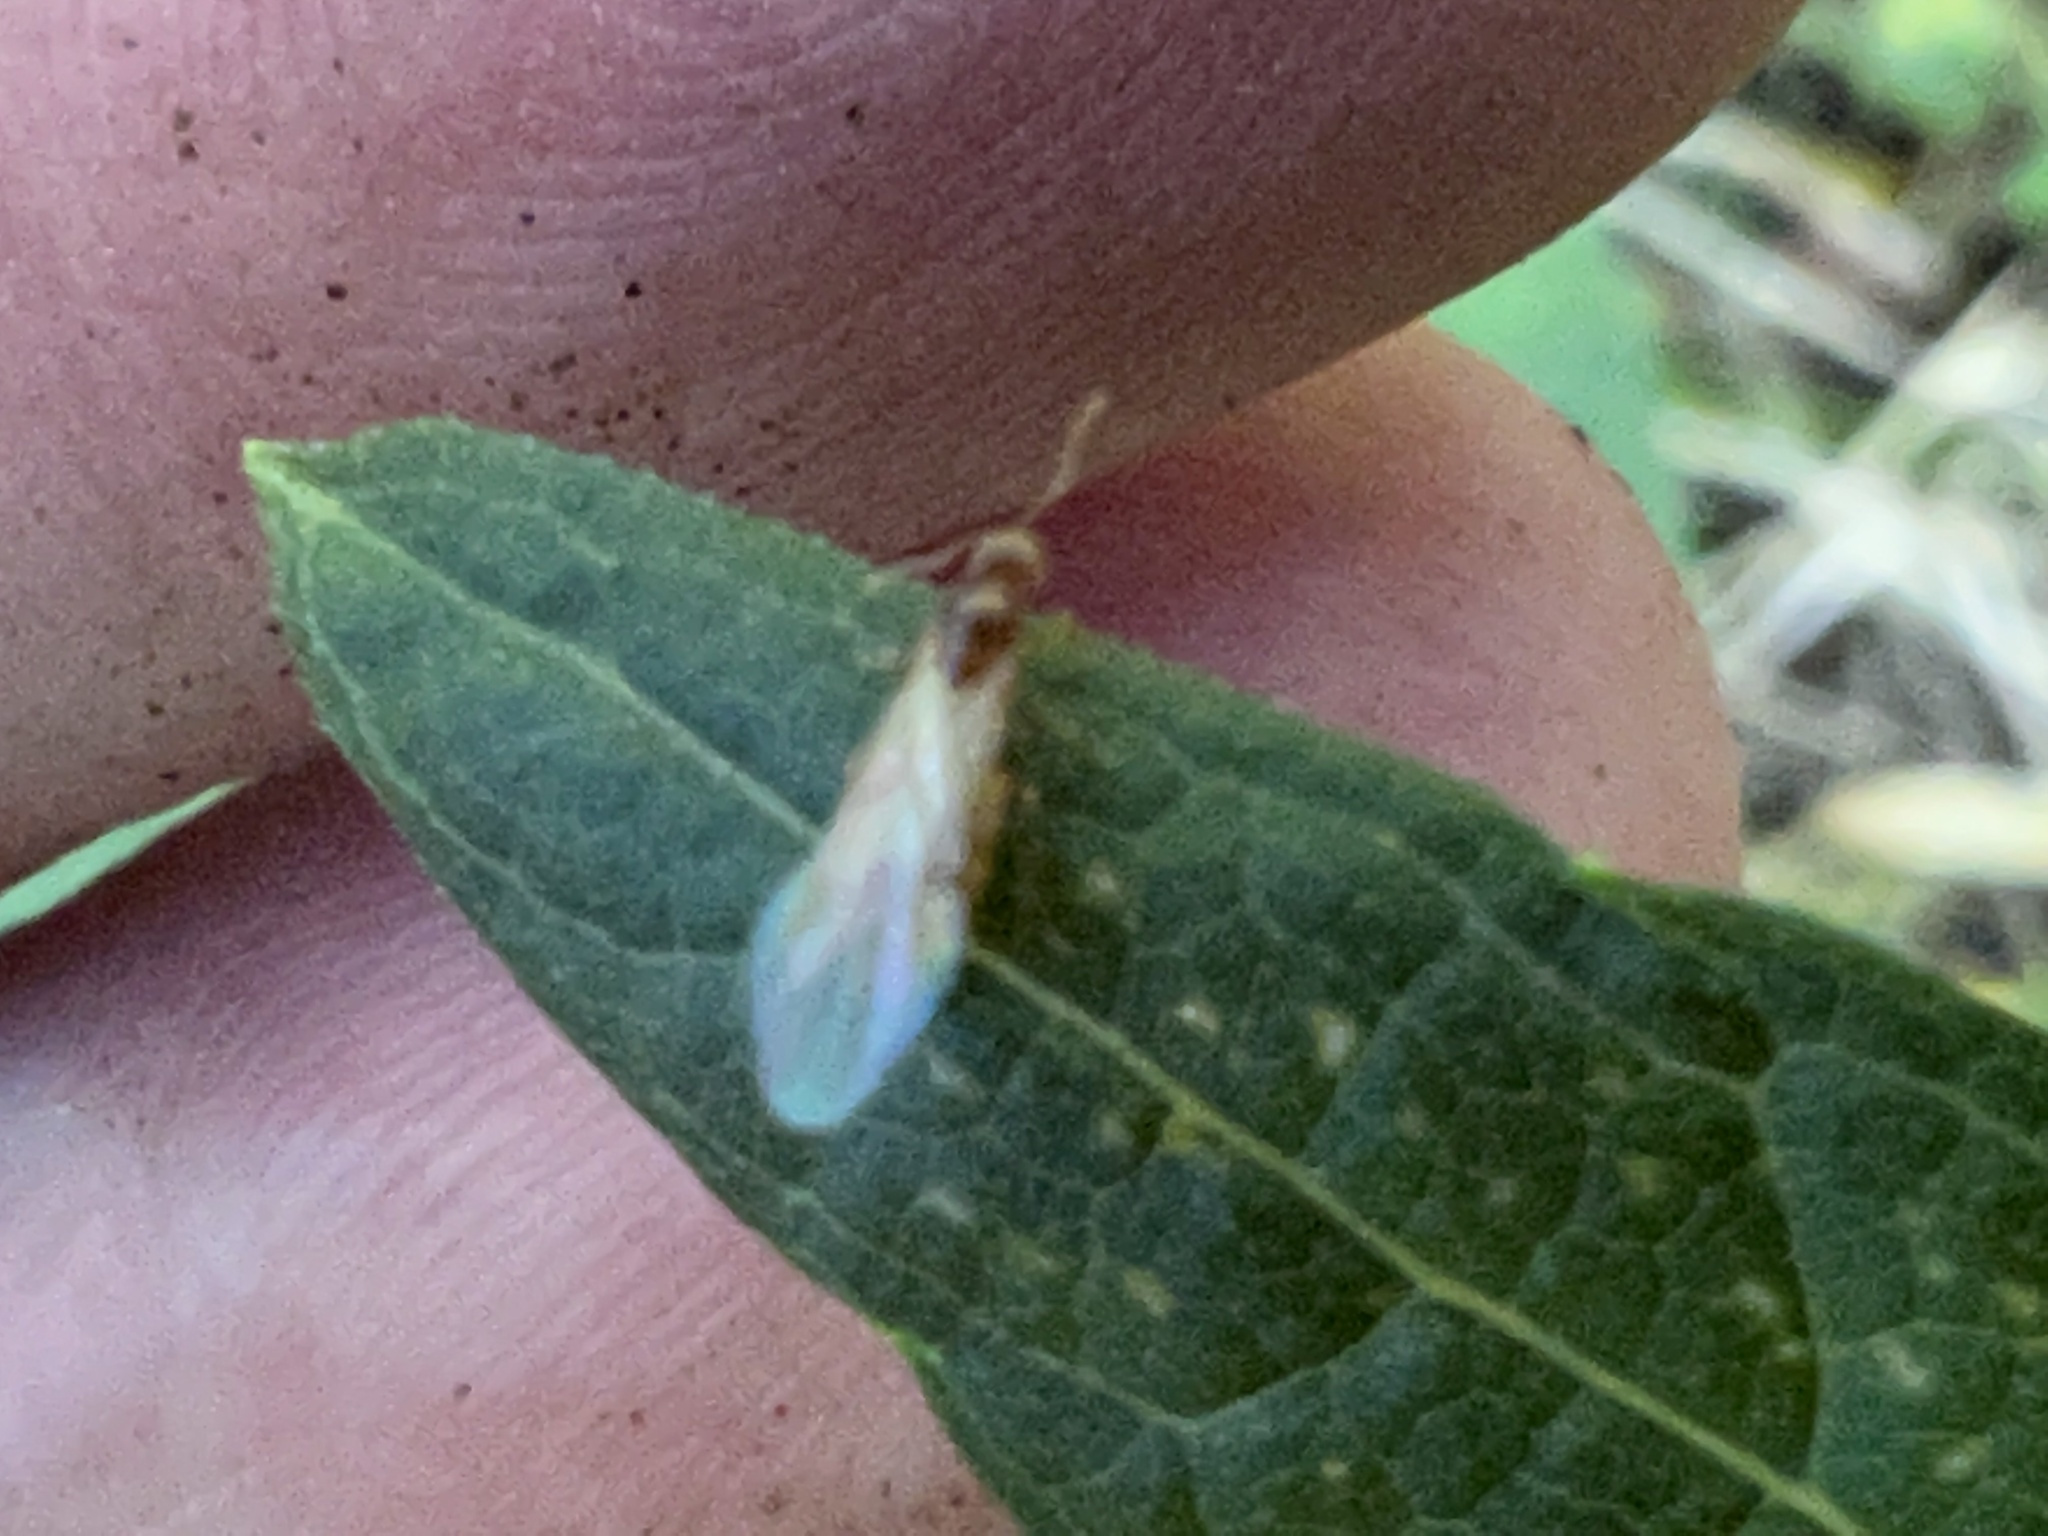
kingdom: Animalia
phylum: Arthropoda
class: Insecta
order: Hymenoptera
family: Formicidae
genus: Brachymyrmex
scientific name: Brachymyrmex depilis
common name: Hairless rover ant
